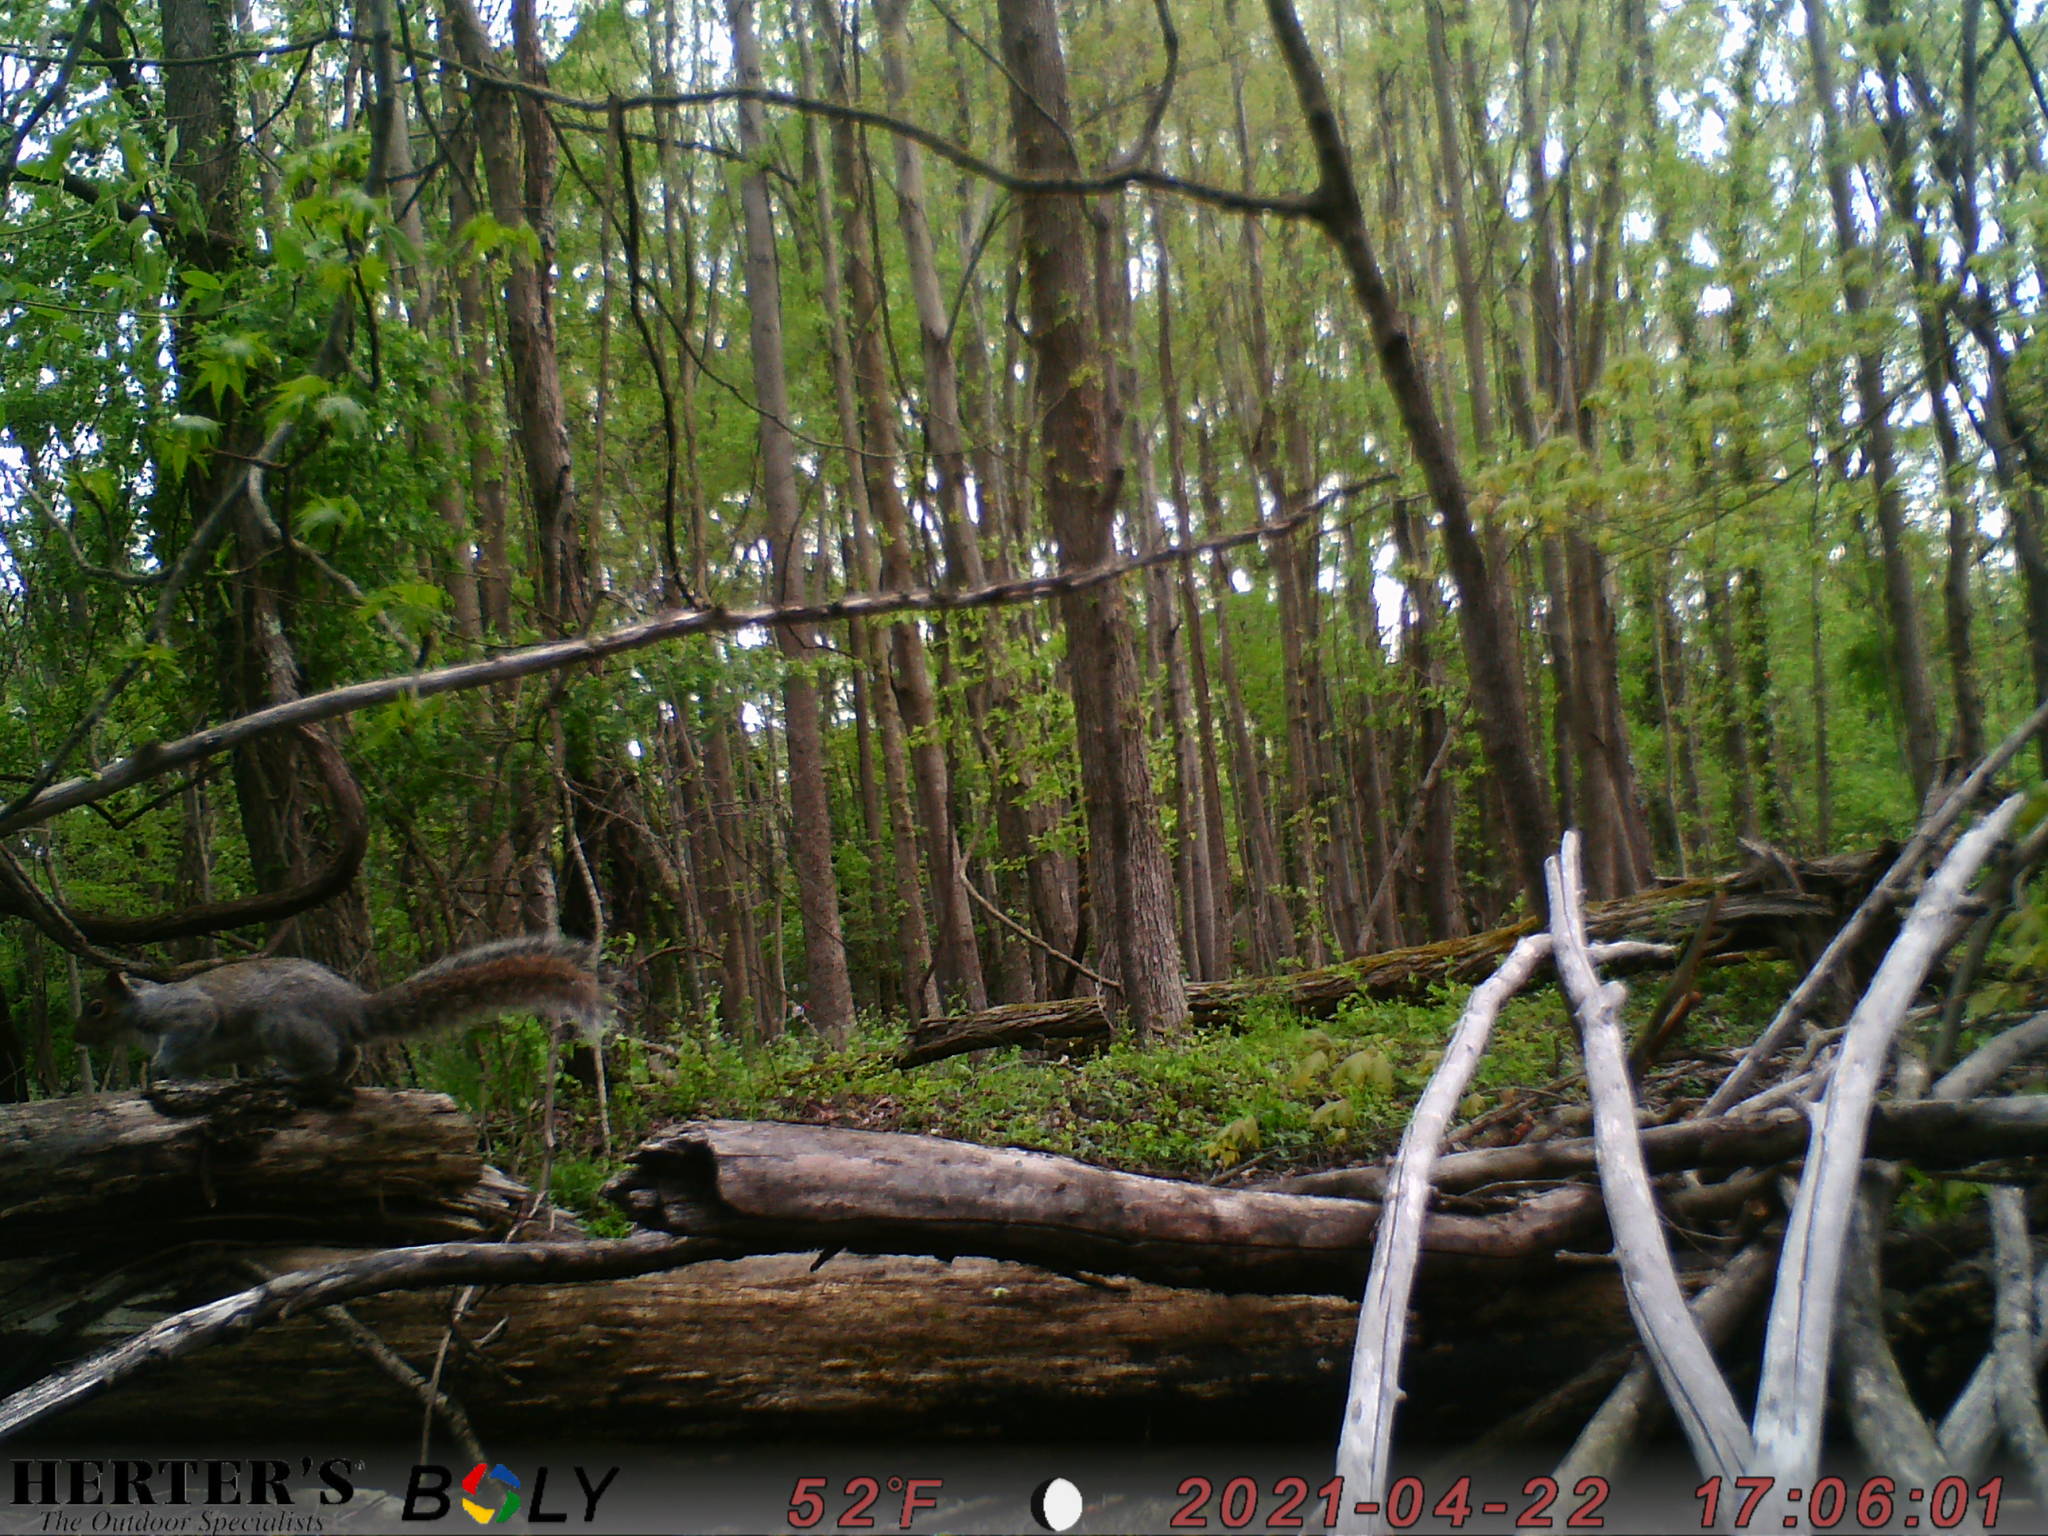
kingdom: Animalia
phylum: Chordata
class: Mammalia
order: Rodentia
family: Sciuridae
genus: Sciurus
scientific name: Sciurus carolinensis
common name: Eastern gray squirrel
